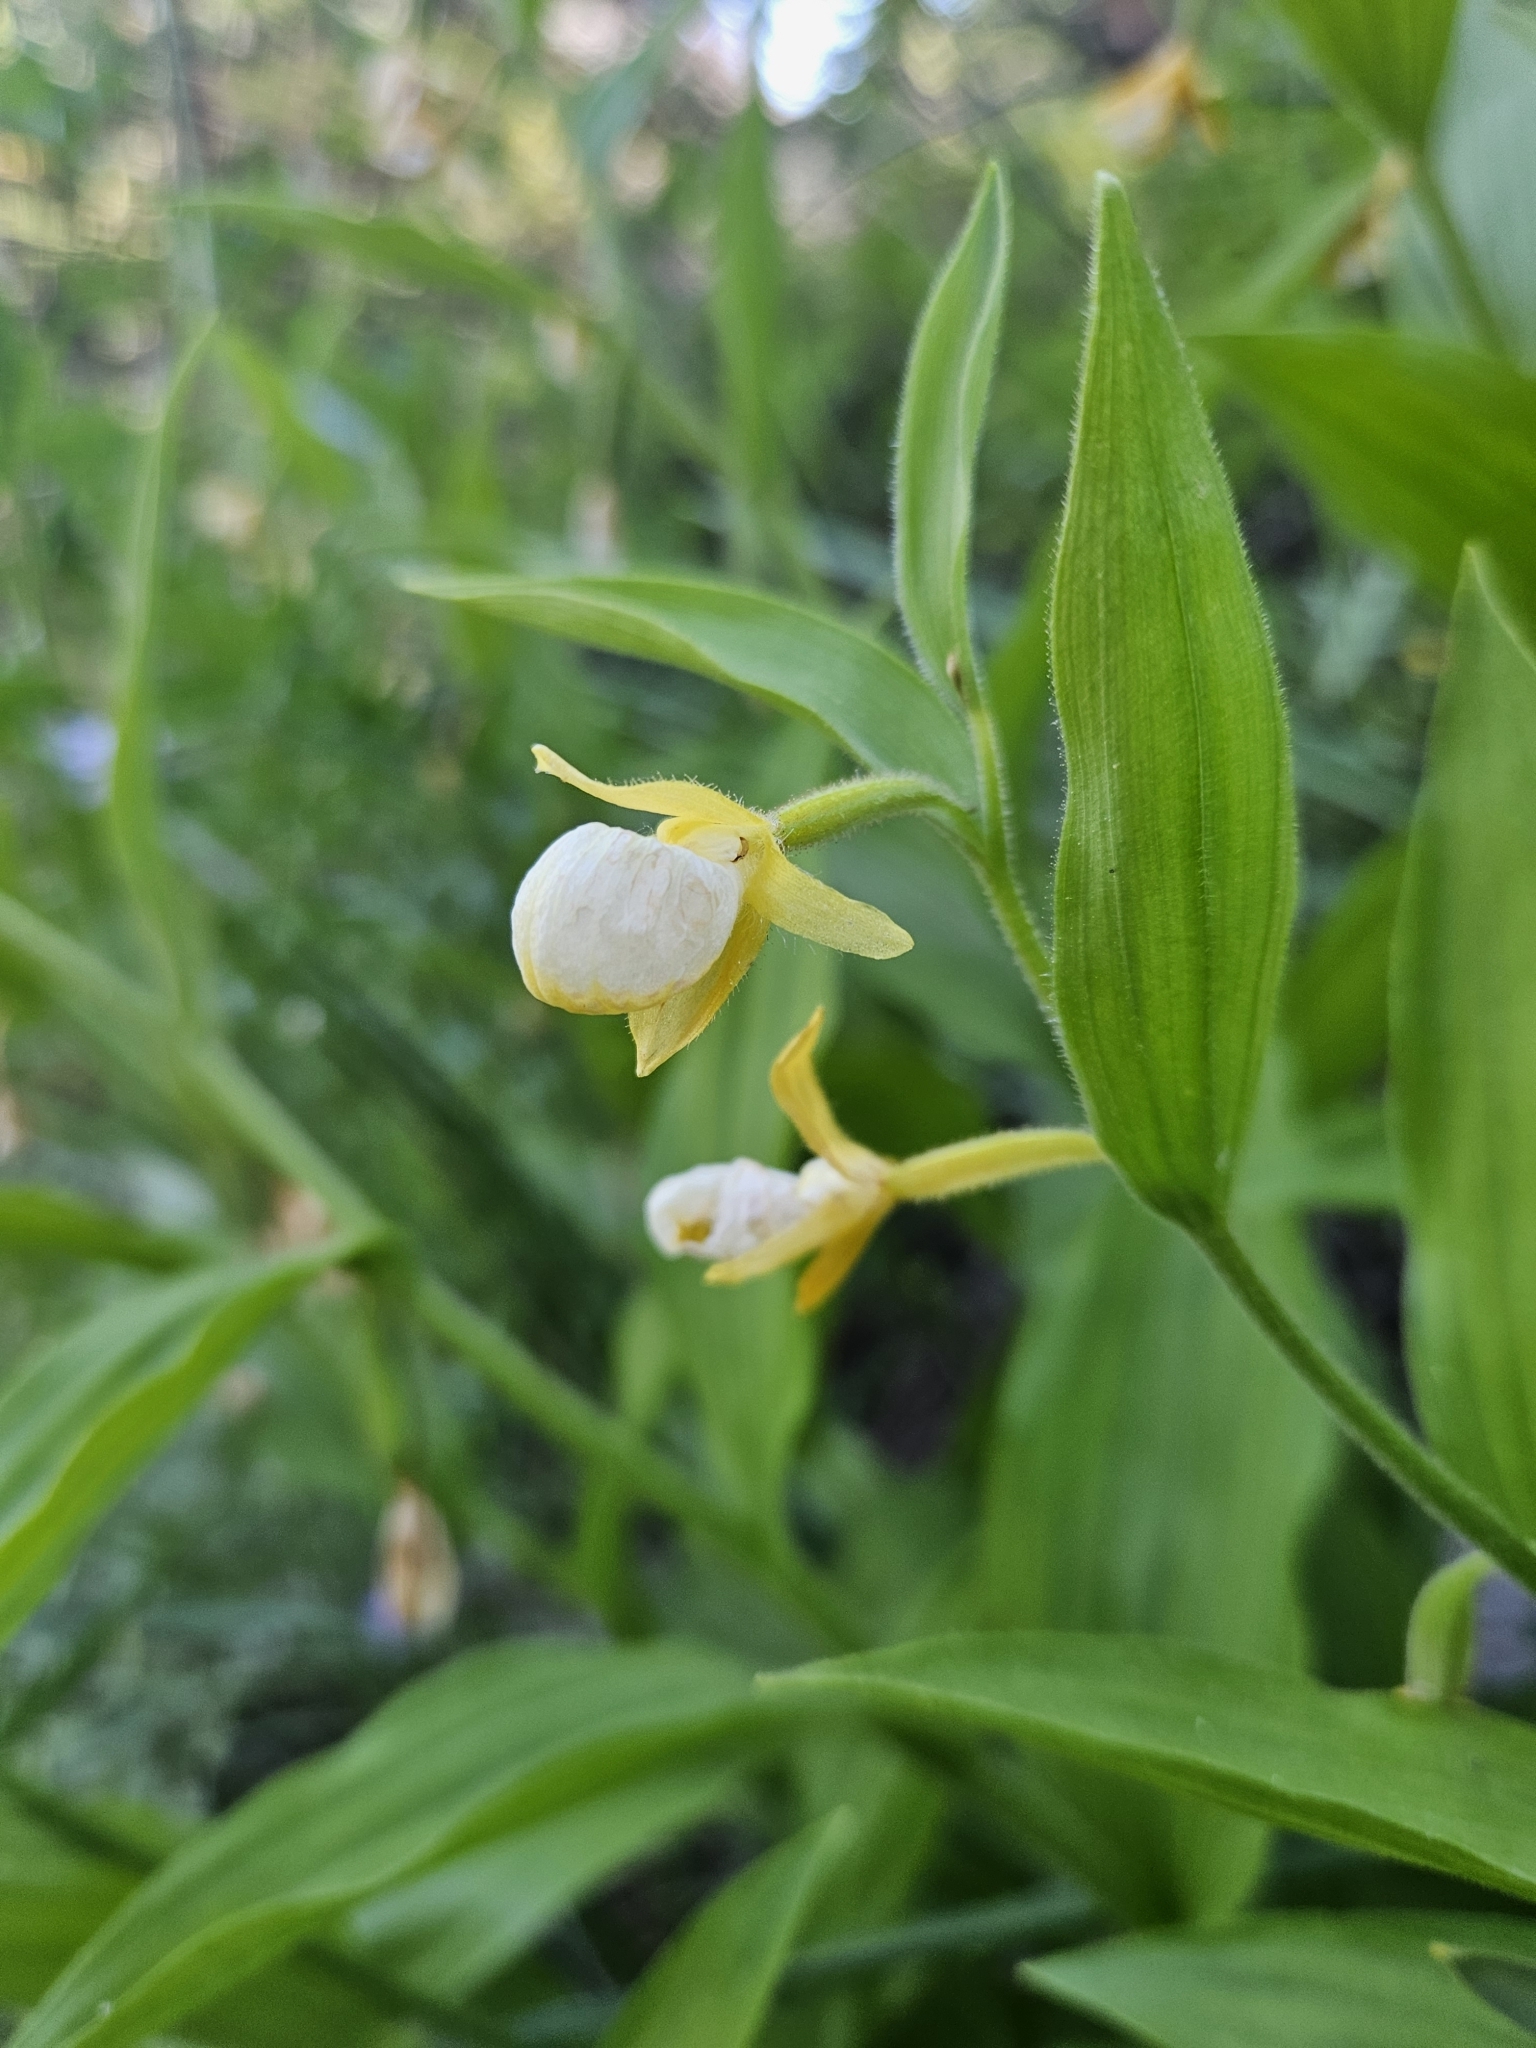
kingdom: Plantae
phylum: Tracheophyta
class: Liliopsida
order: Asparagales
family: Orchidaceae
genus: Cypripedium
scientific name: Cypripedium californicum
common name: California lady's slipper
